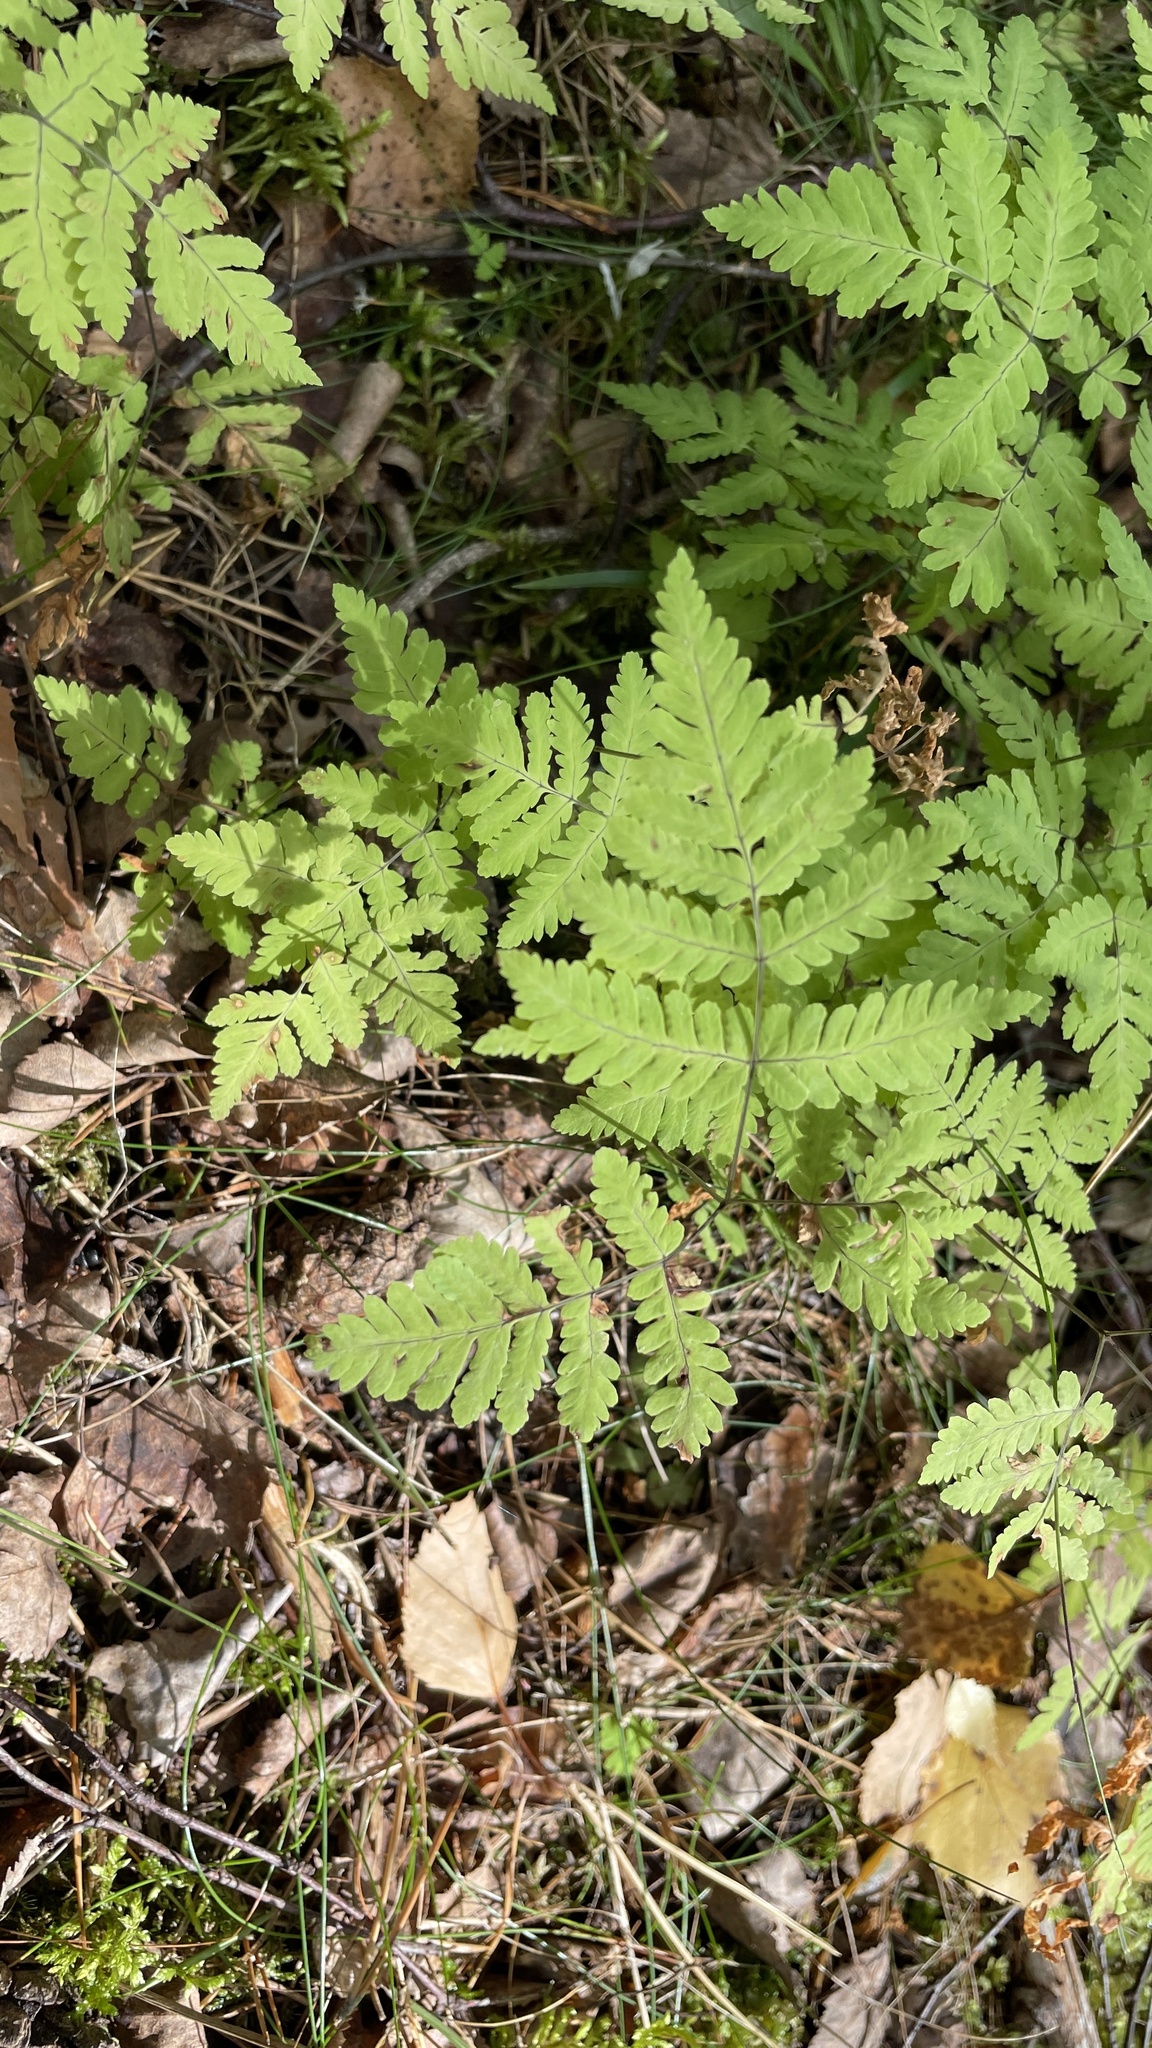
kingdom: Plantae
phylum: Tracheophyta
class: Polypodiopsida
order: Polypodiales
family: Cystopteridaceae
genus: Gymnocarpium
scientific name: Gymnocarpium dryopteris
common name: Oak fern
